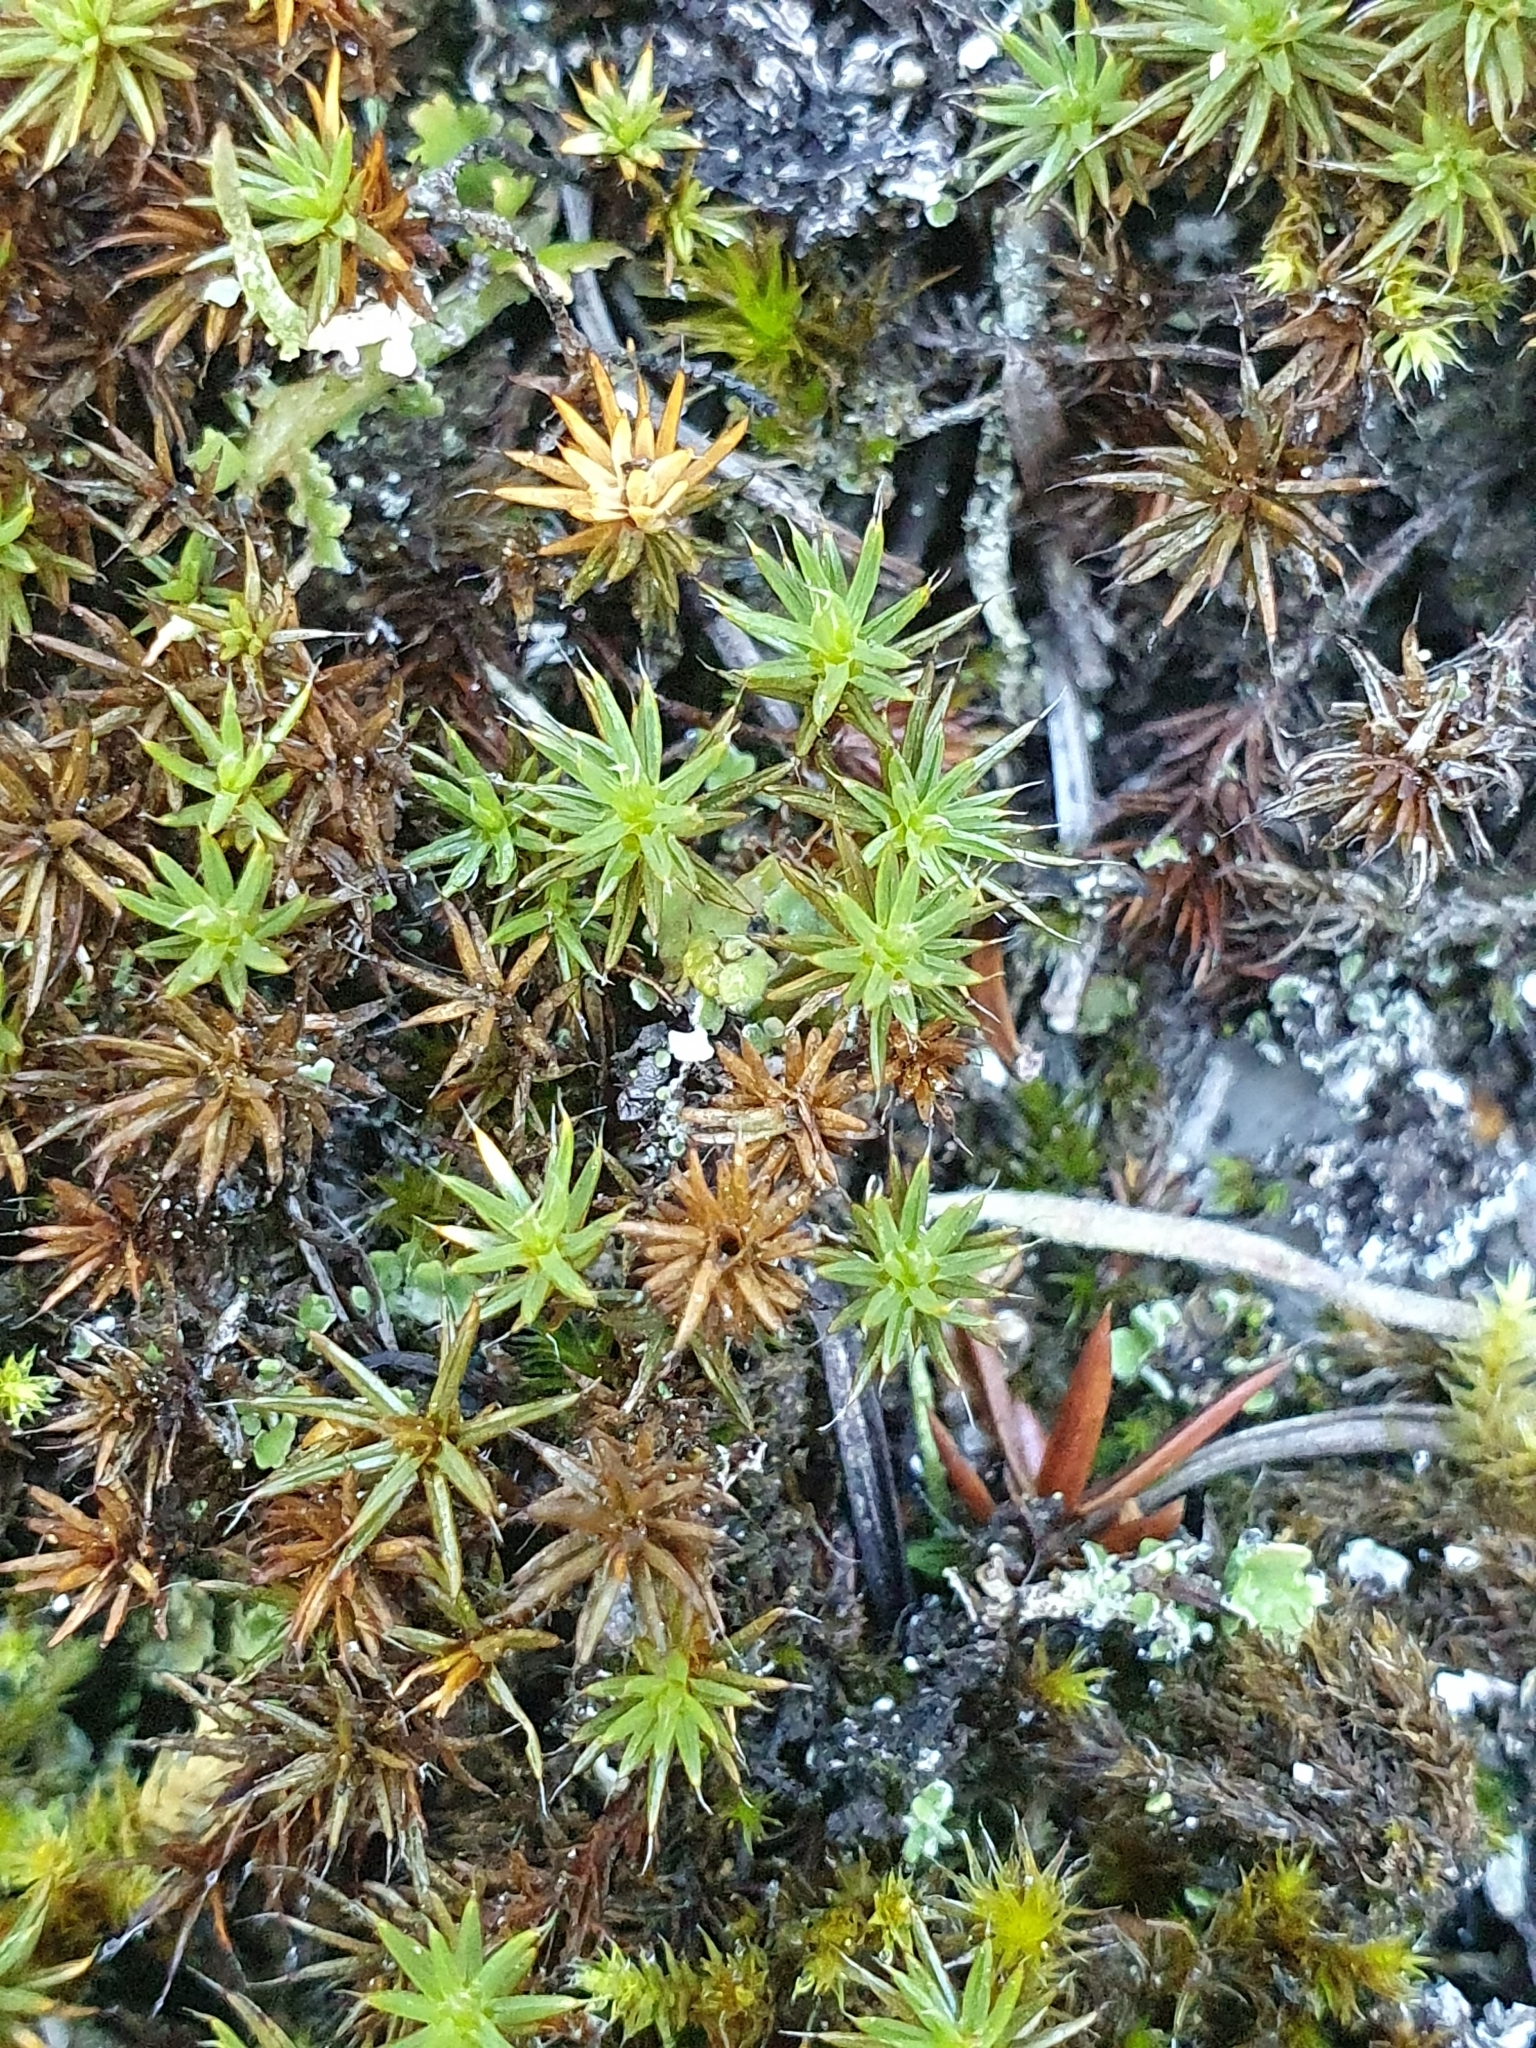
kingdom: Plantae
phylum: Bryophyta
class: Polytrichopsida
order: Polytrichales
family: Polytrichaceae
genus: Polytrichum
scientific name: Polytrichum piliferum
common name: Bristly haircap
